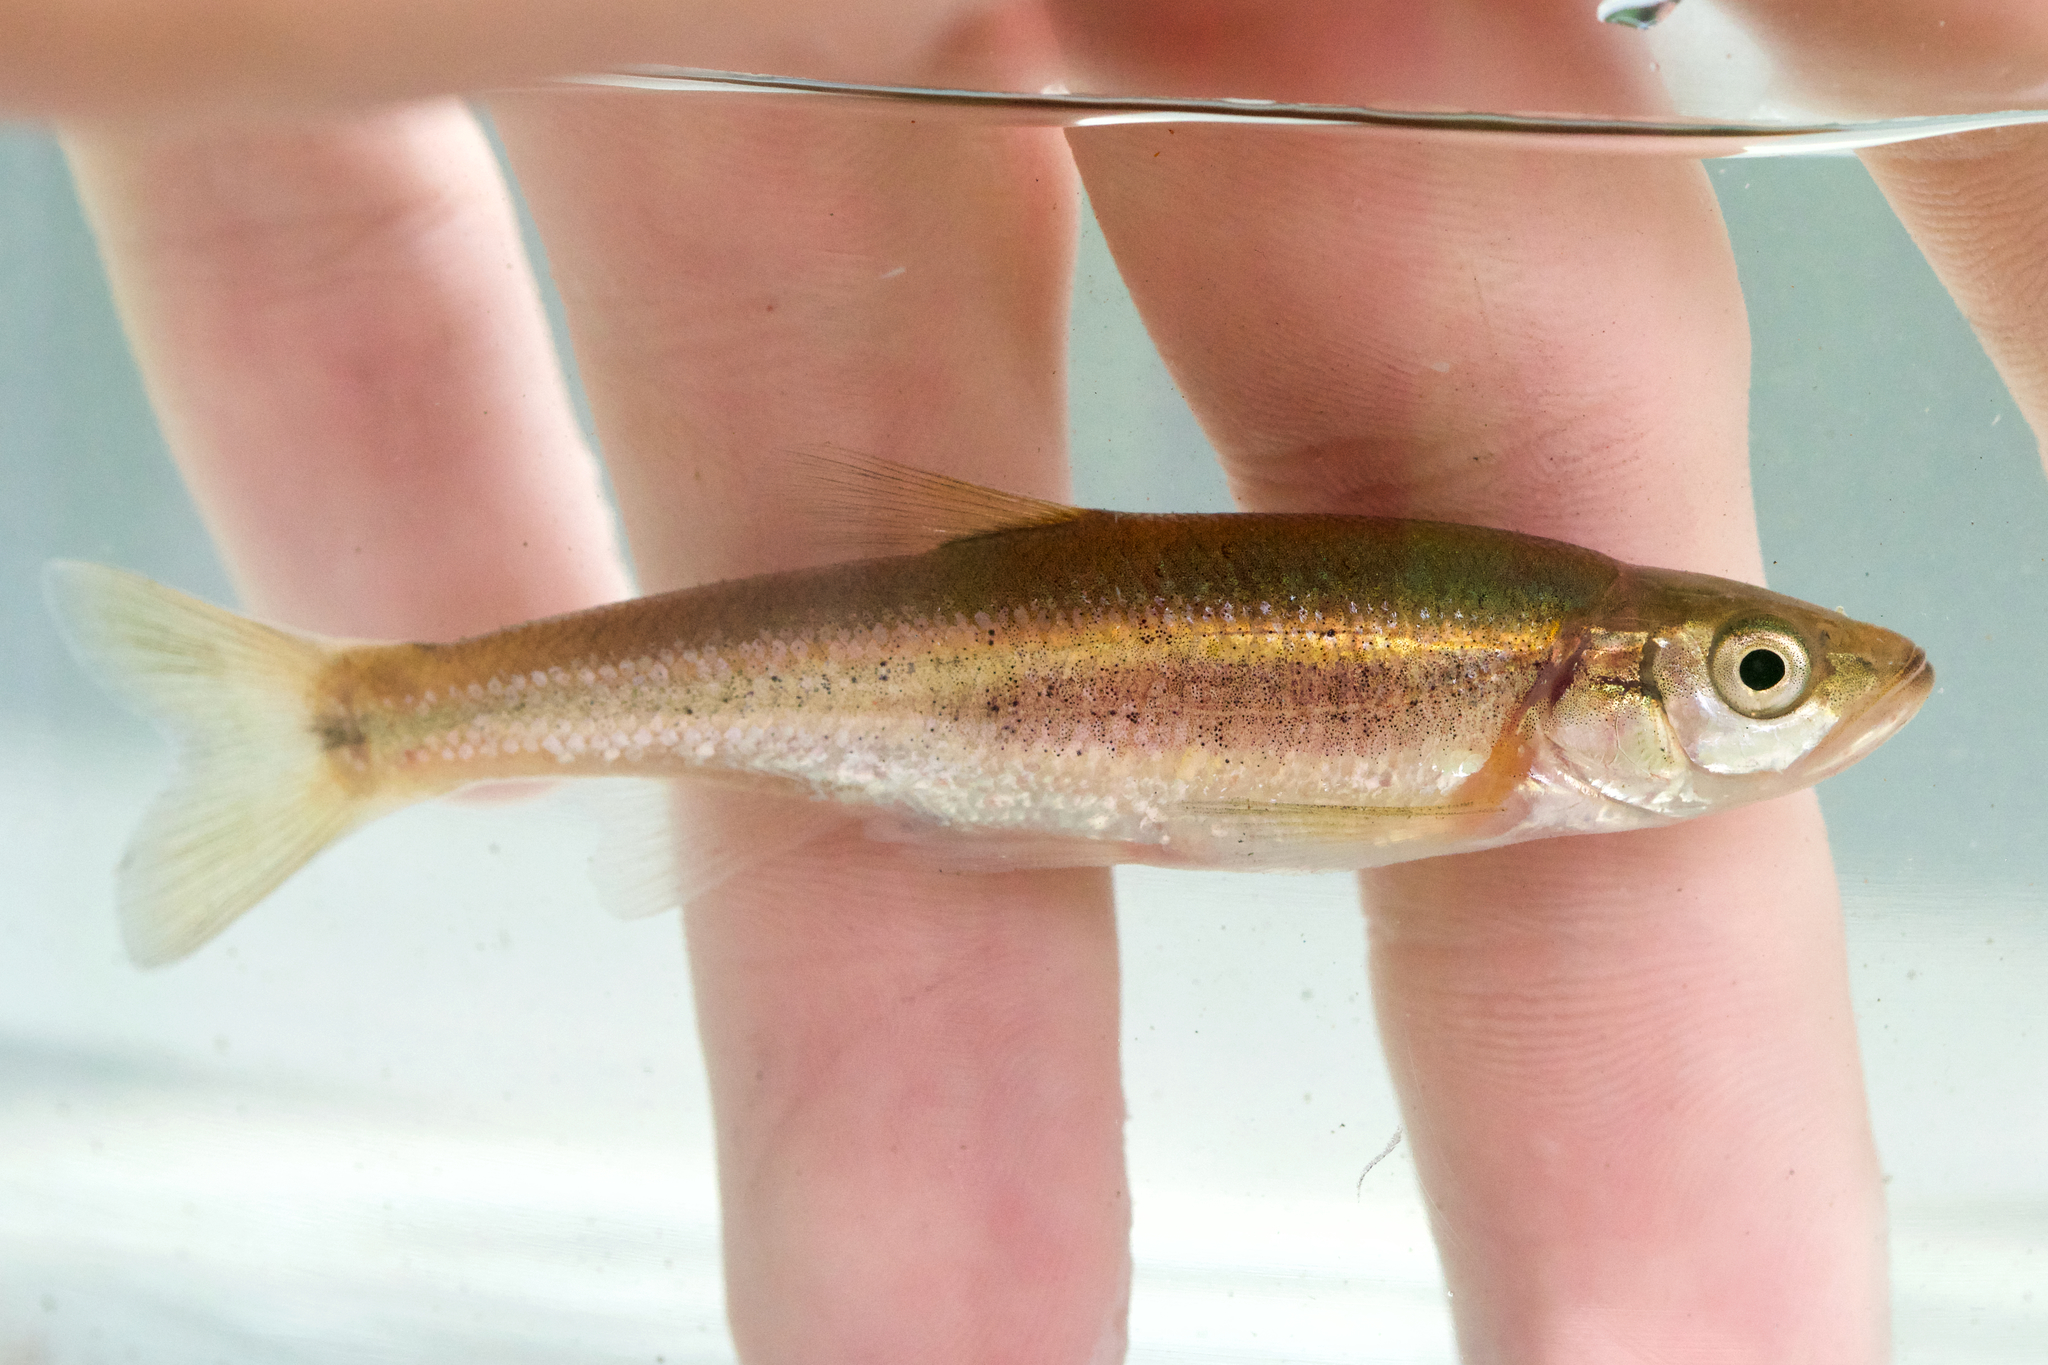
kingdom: Animalia
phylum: Chordata
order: Cypriniformes
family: Cyprinidae
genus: Clinostomus
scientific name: Clinostomus elongatus
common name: Redside dace
